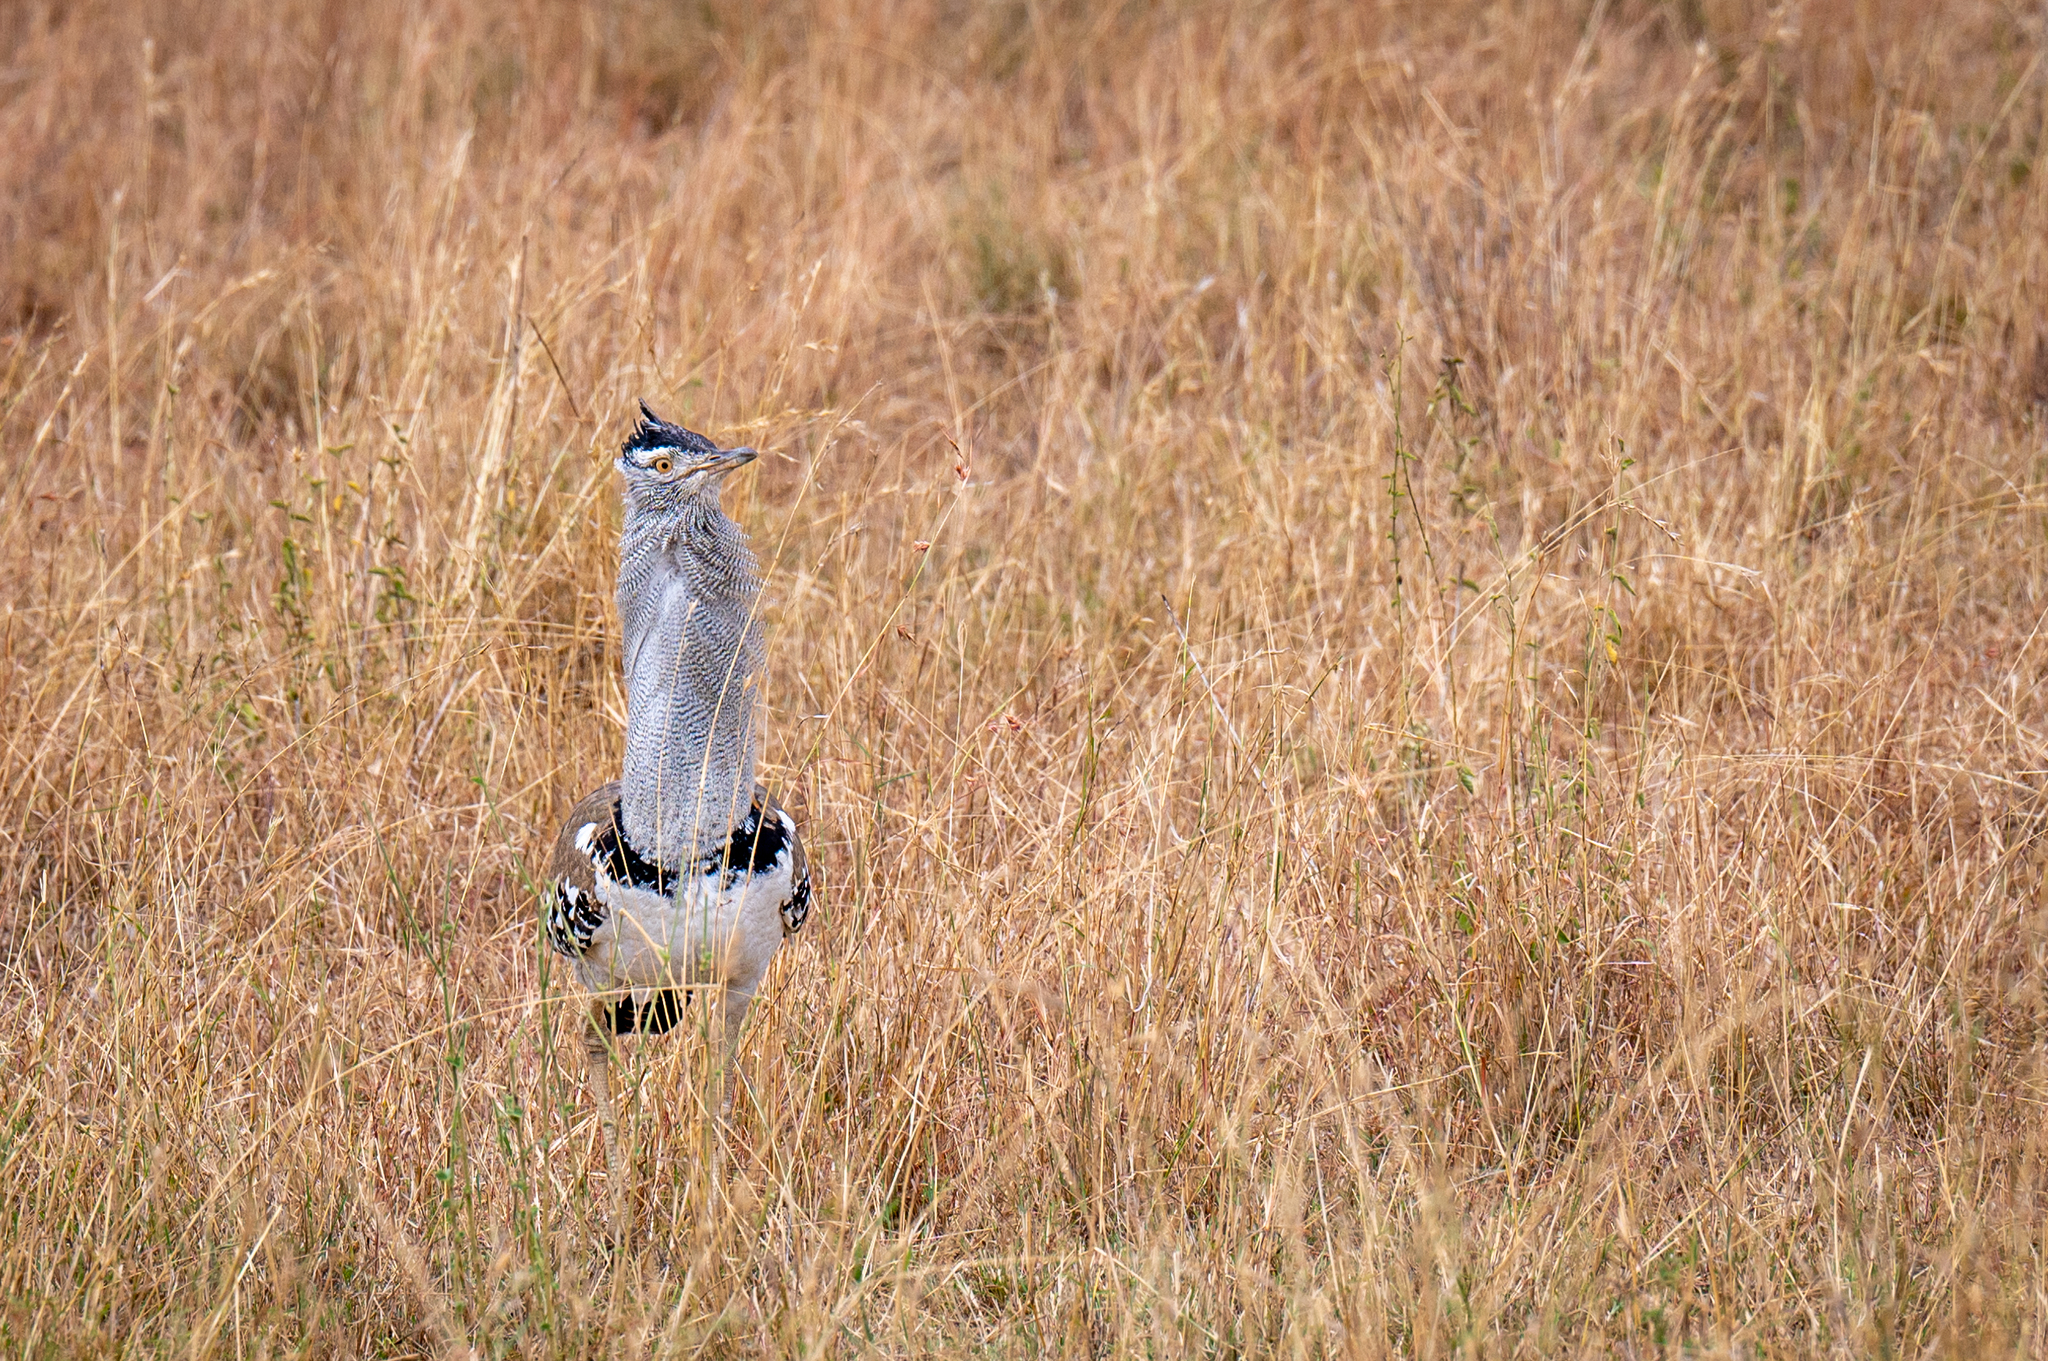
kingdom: Animalia
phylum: Chordata
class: Aves
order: Otidiformes
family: Otididae
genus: Ardeotis
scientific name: Ardeotis kori
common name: Kori bustard
